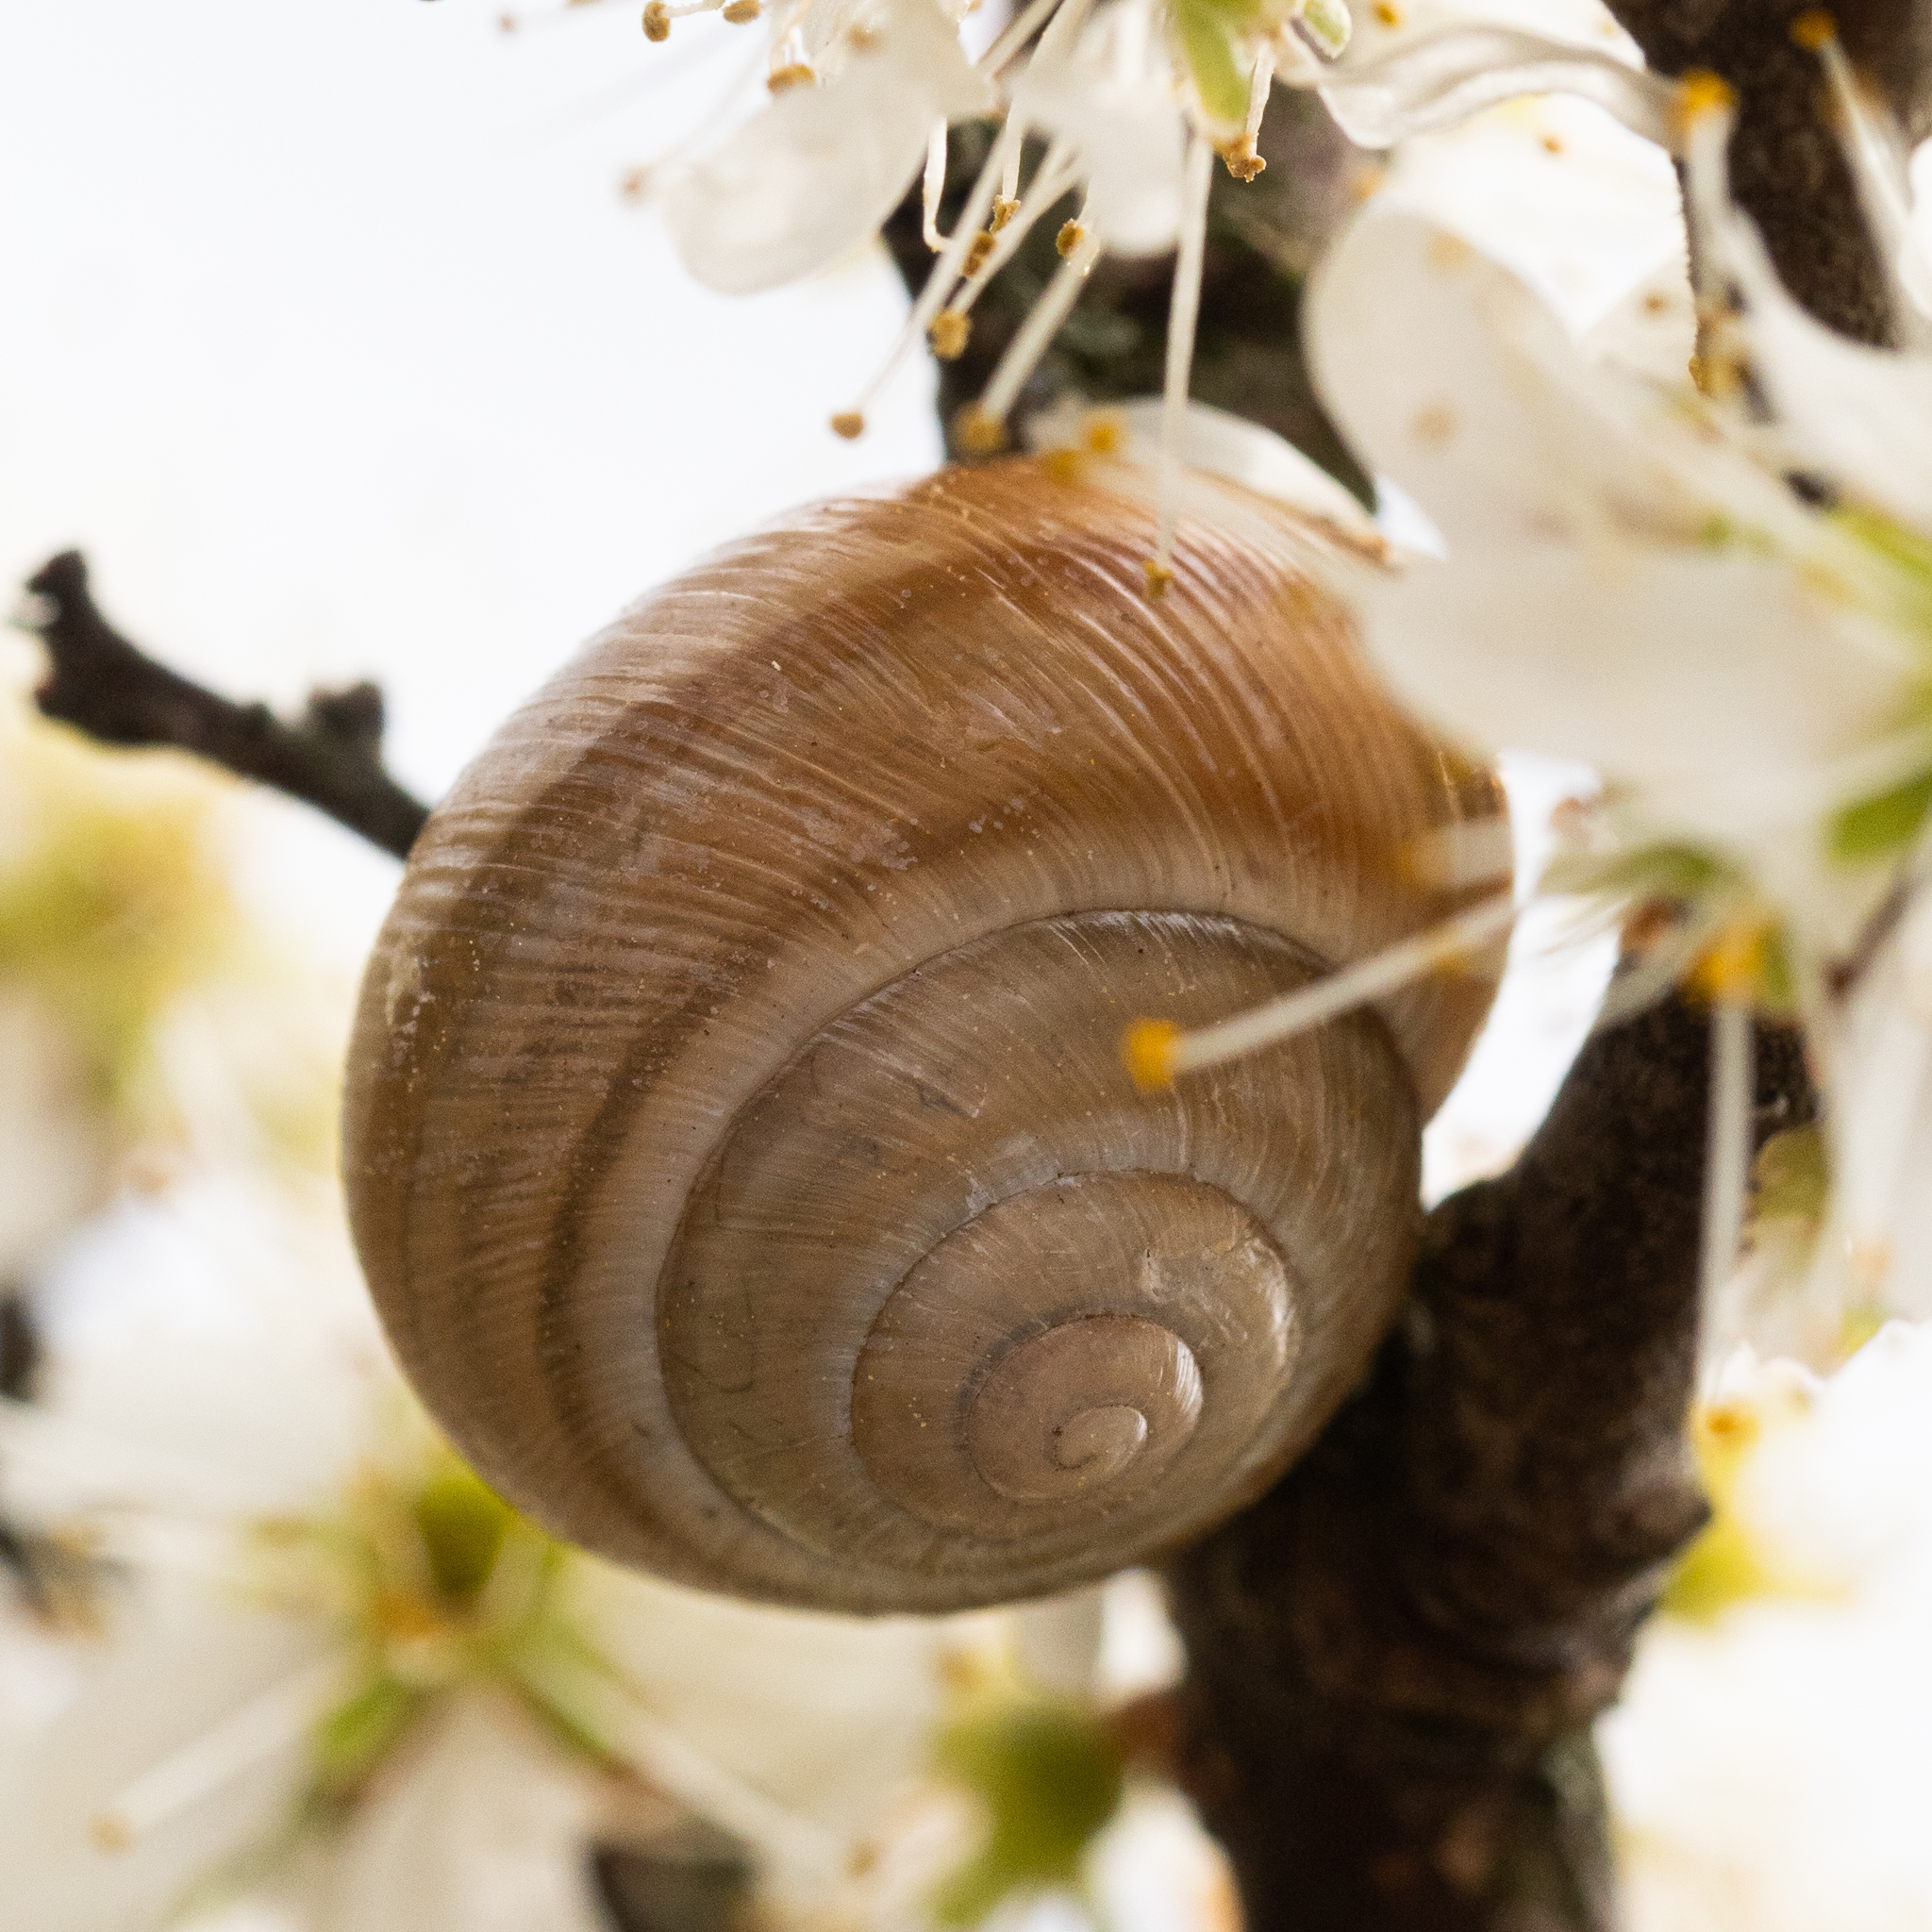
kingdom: Animalia
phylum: Mollusca
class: Gastropoda
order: Stylommatophora
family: Helicidae
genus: Caucasotachea
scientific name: Caucasotachea vindobonensis
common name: European helicid land snail
